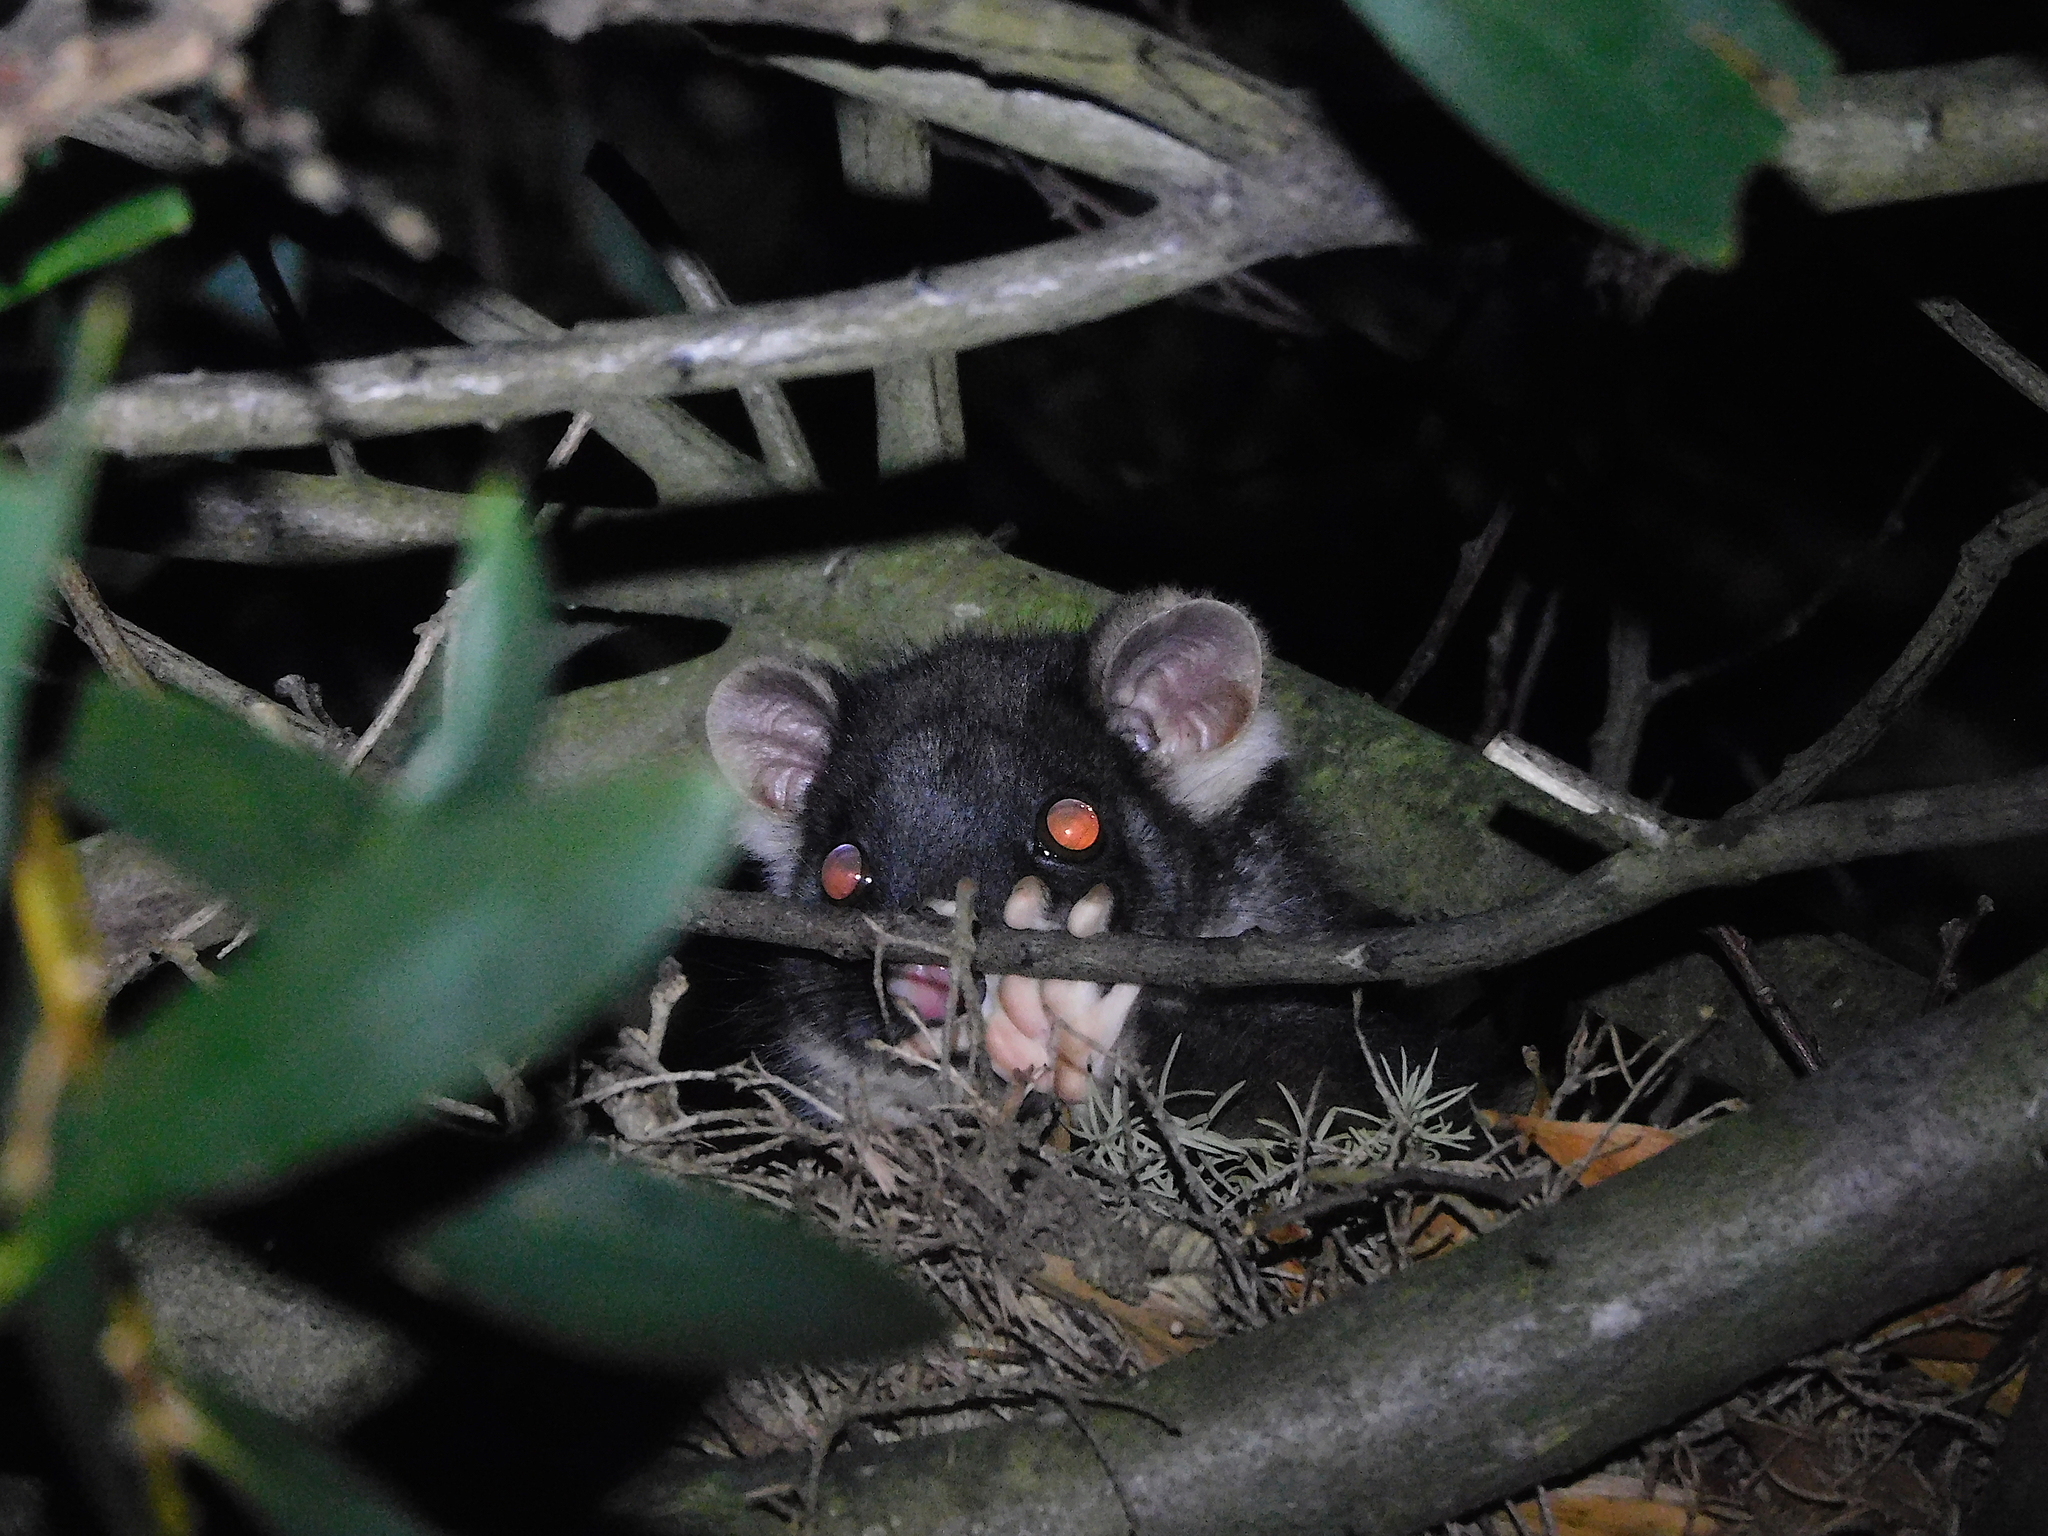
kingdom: Animalia
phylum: Chordata
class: Mammalia
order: Diprotodontia
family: Pseudocheiridae
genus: Pseudocheirus
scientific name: Pseudocheirus peregrinus
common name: Common ringtail possum
